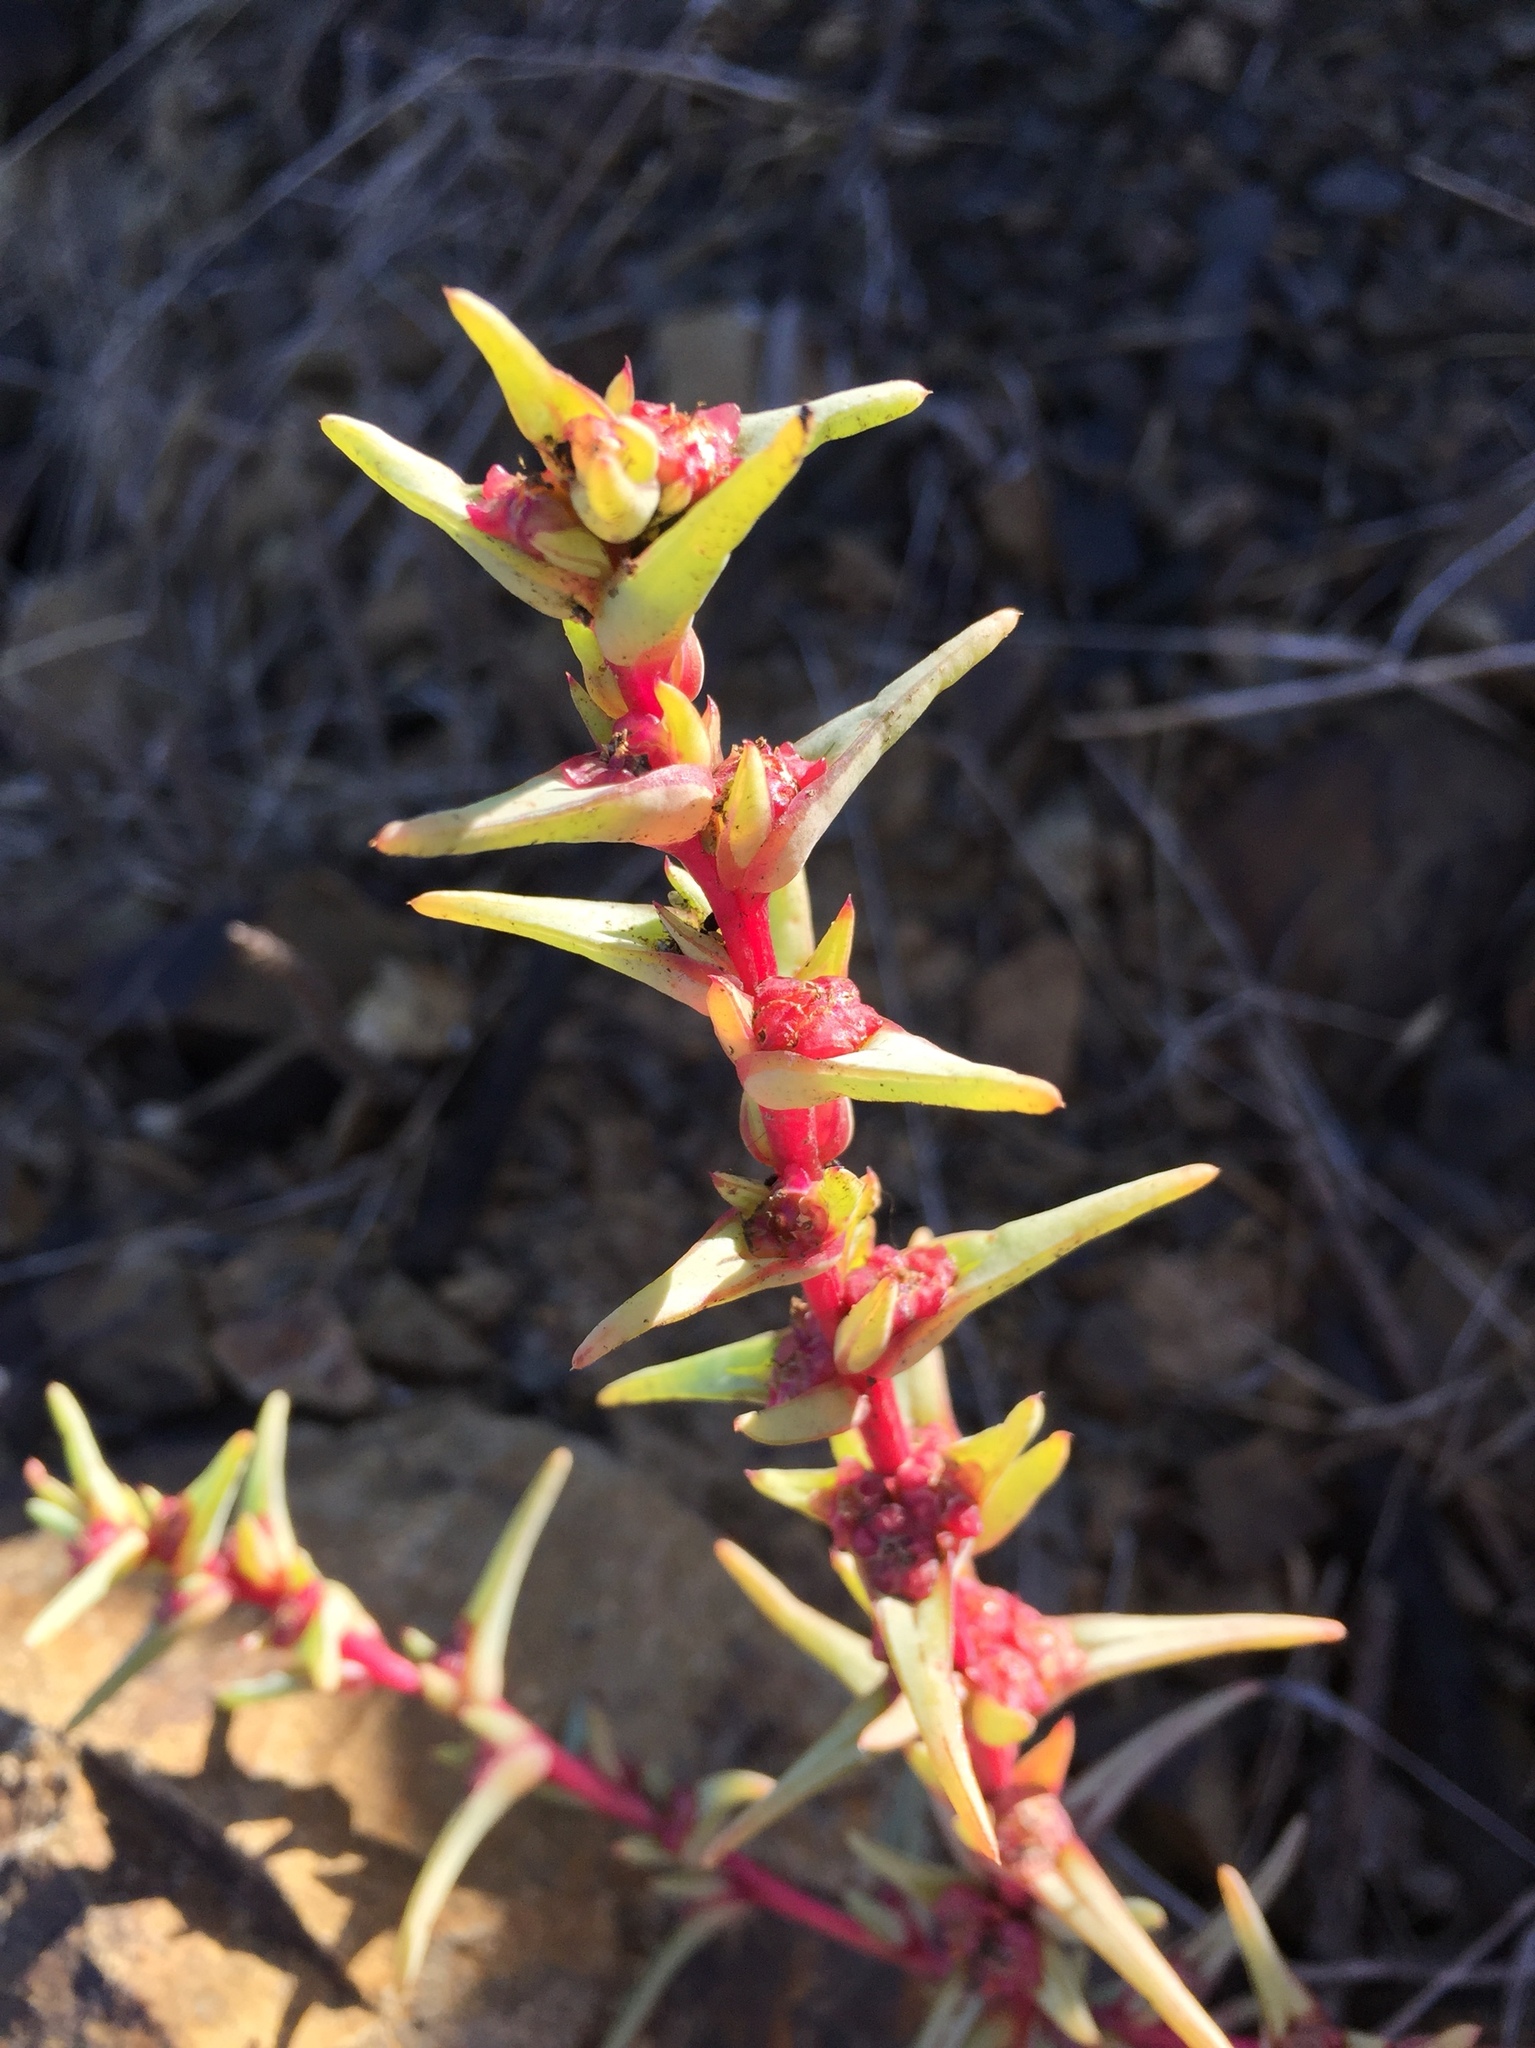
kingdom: Plantae
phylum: Tracheophyta
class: Magnoliopsida
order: Caryophyllales
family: Amaranthaceae
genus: Salsola
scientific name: Salsola soda
